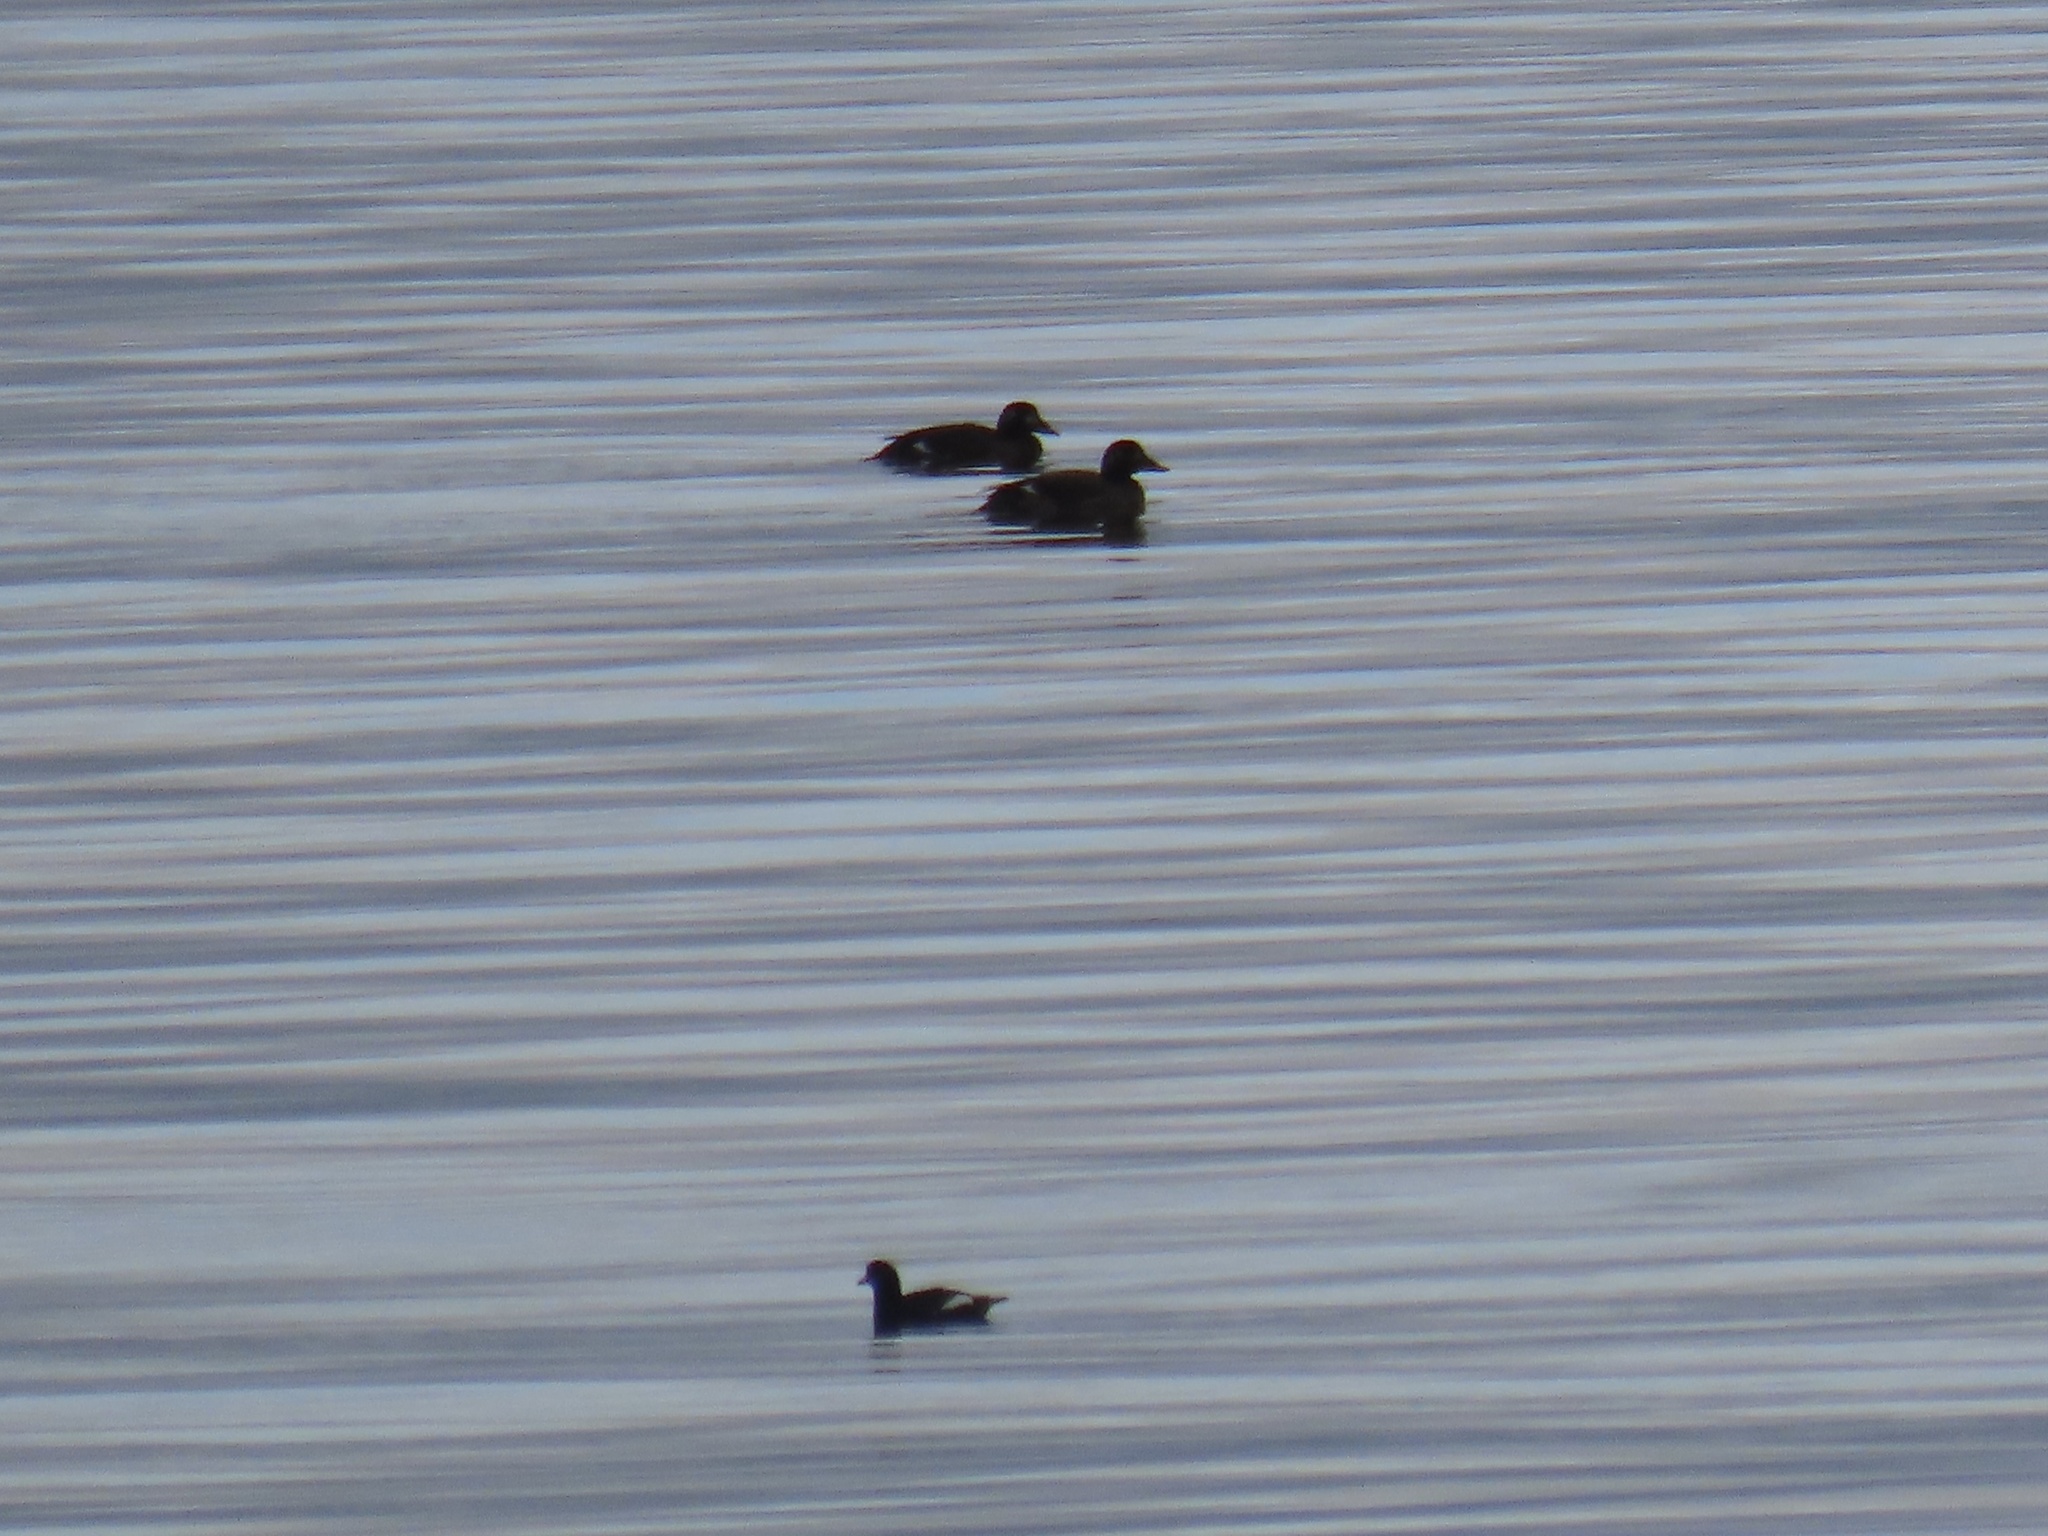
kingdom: Animalia
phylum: Chordata
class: Aves
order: Charadriiformes
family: Alcidae
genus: Cepphus
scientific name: Cepphus columba
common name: Pigeon guillemot
